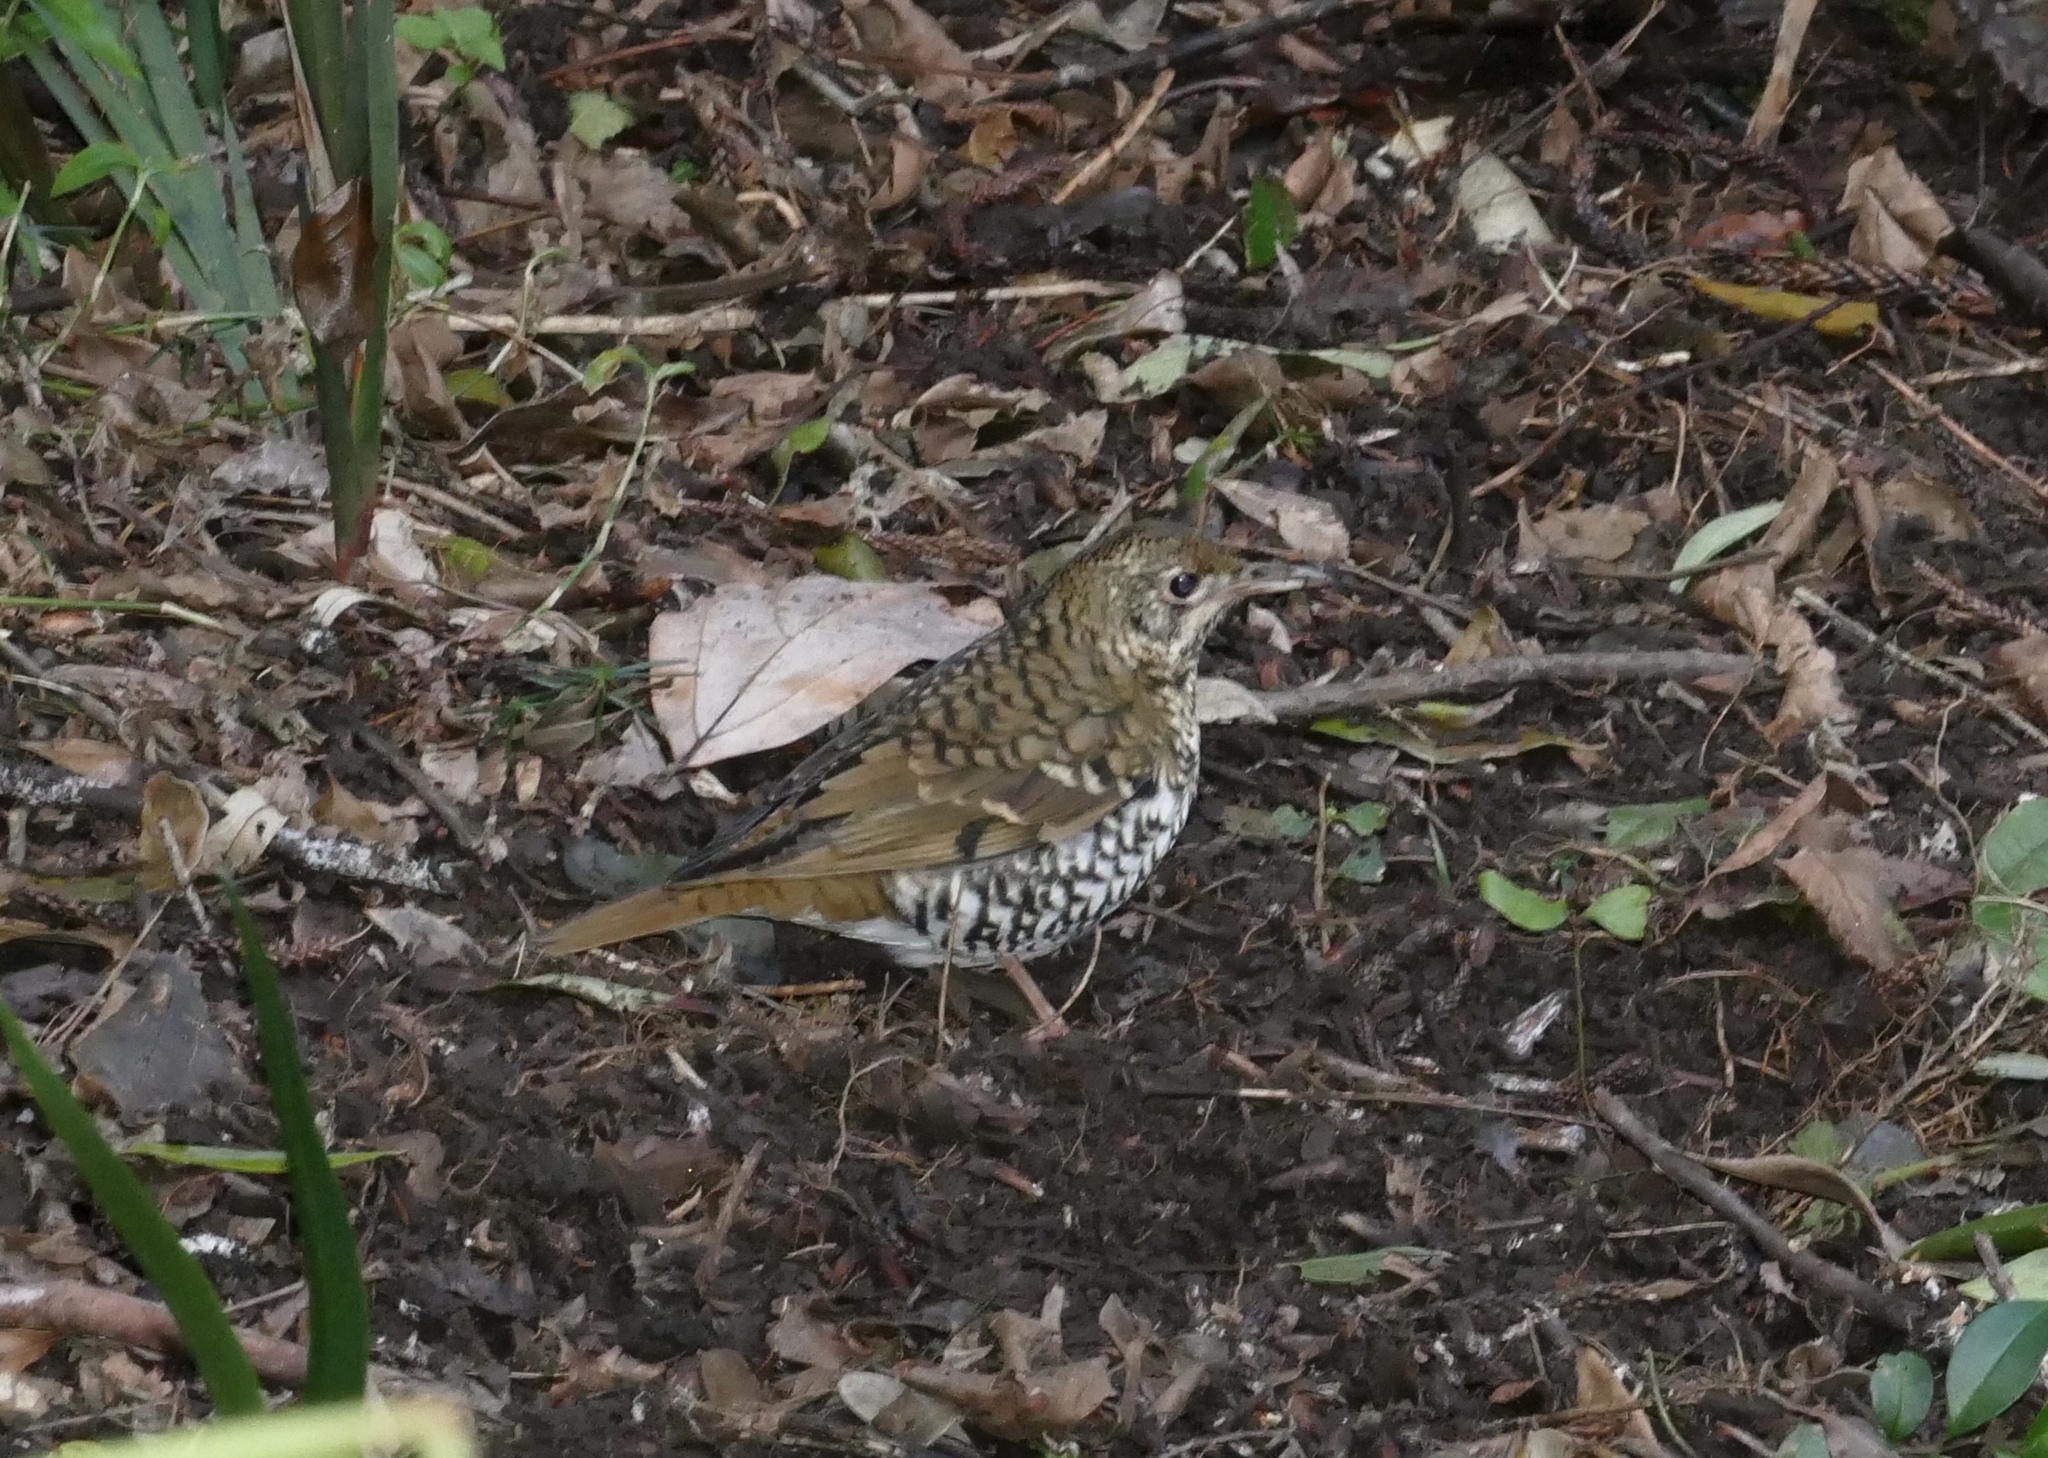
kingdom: Animalia
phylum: Chordata
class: Aves
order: Passeriformes
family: Turdidae
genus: Zoothera
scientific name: Zoothera heinei
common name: Russet-tailed thrush
